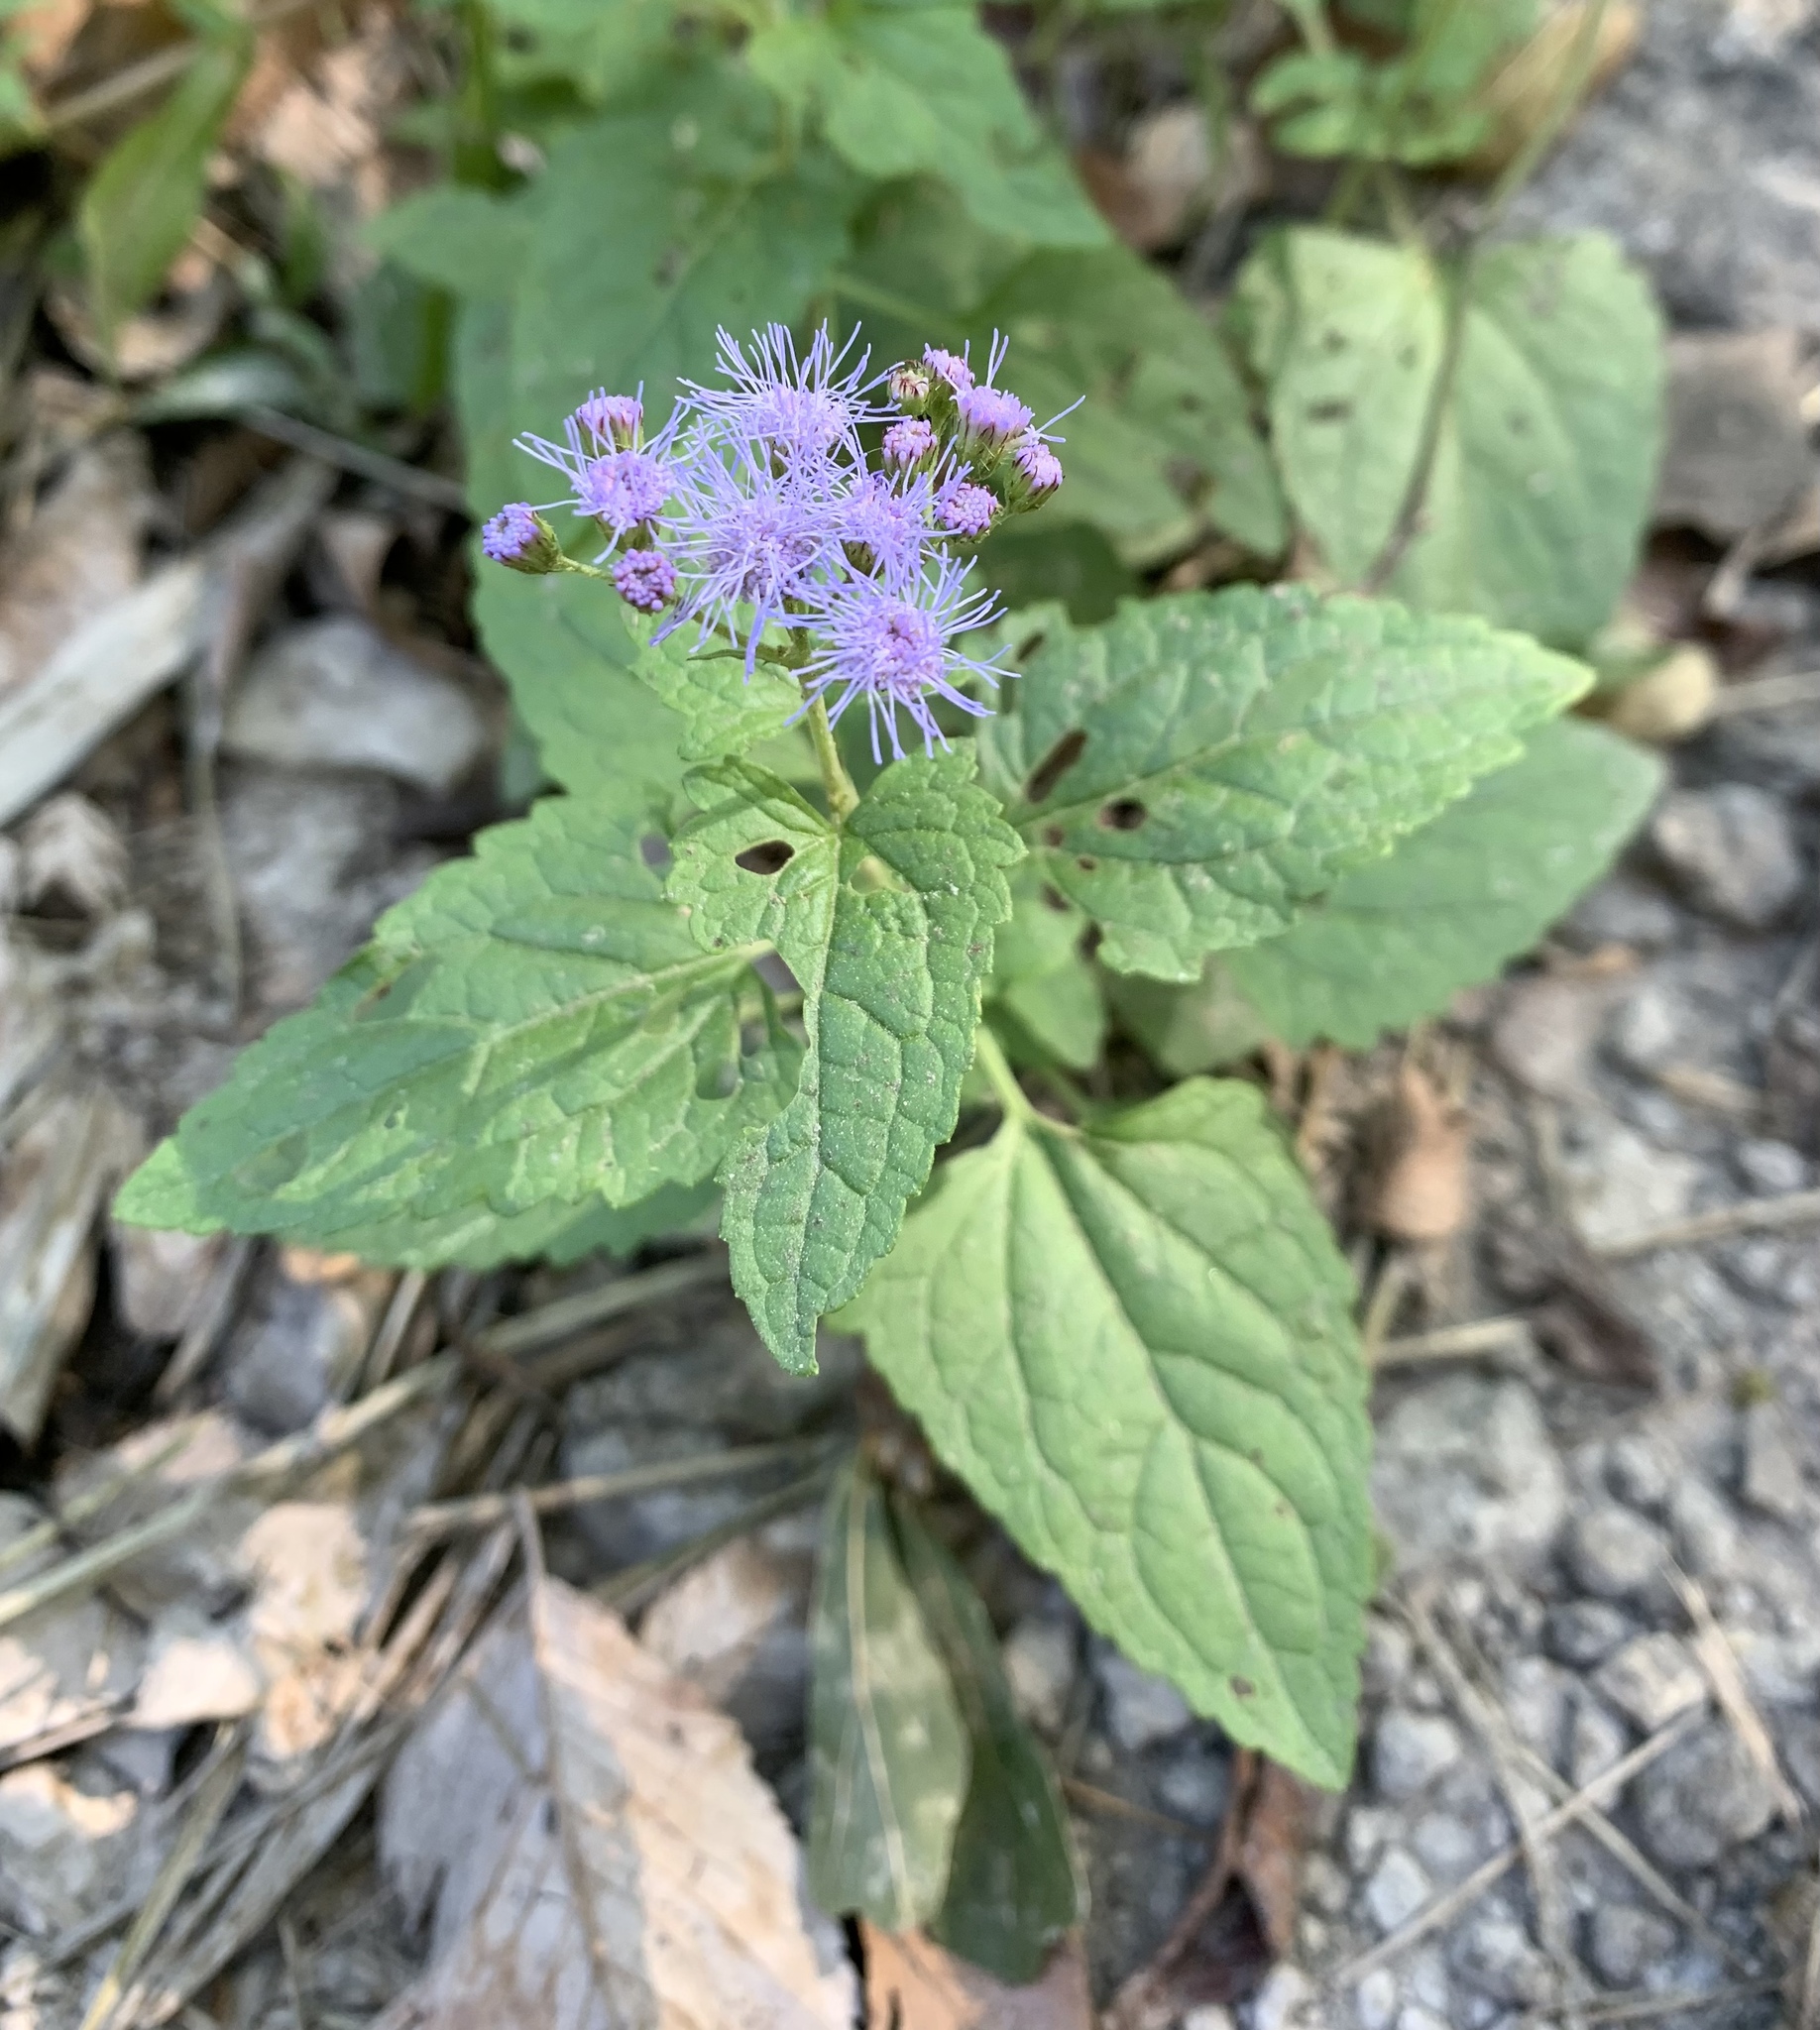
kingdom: Plantae
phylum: Tracheophyta
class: Magnoliopsida
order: Asterales
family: Asteraceae
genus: Conoclinium
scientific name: Conoclinium coelestinum
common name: Blue mistflower
